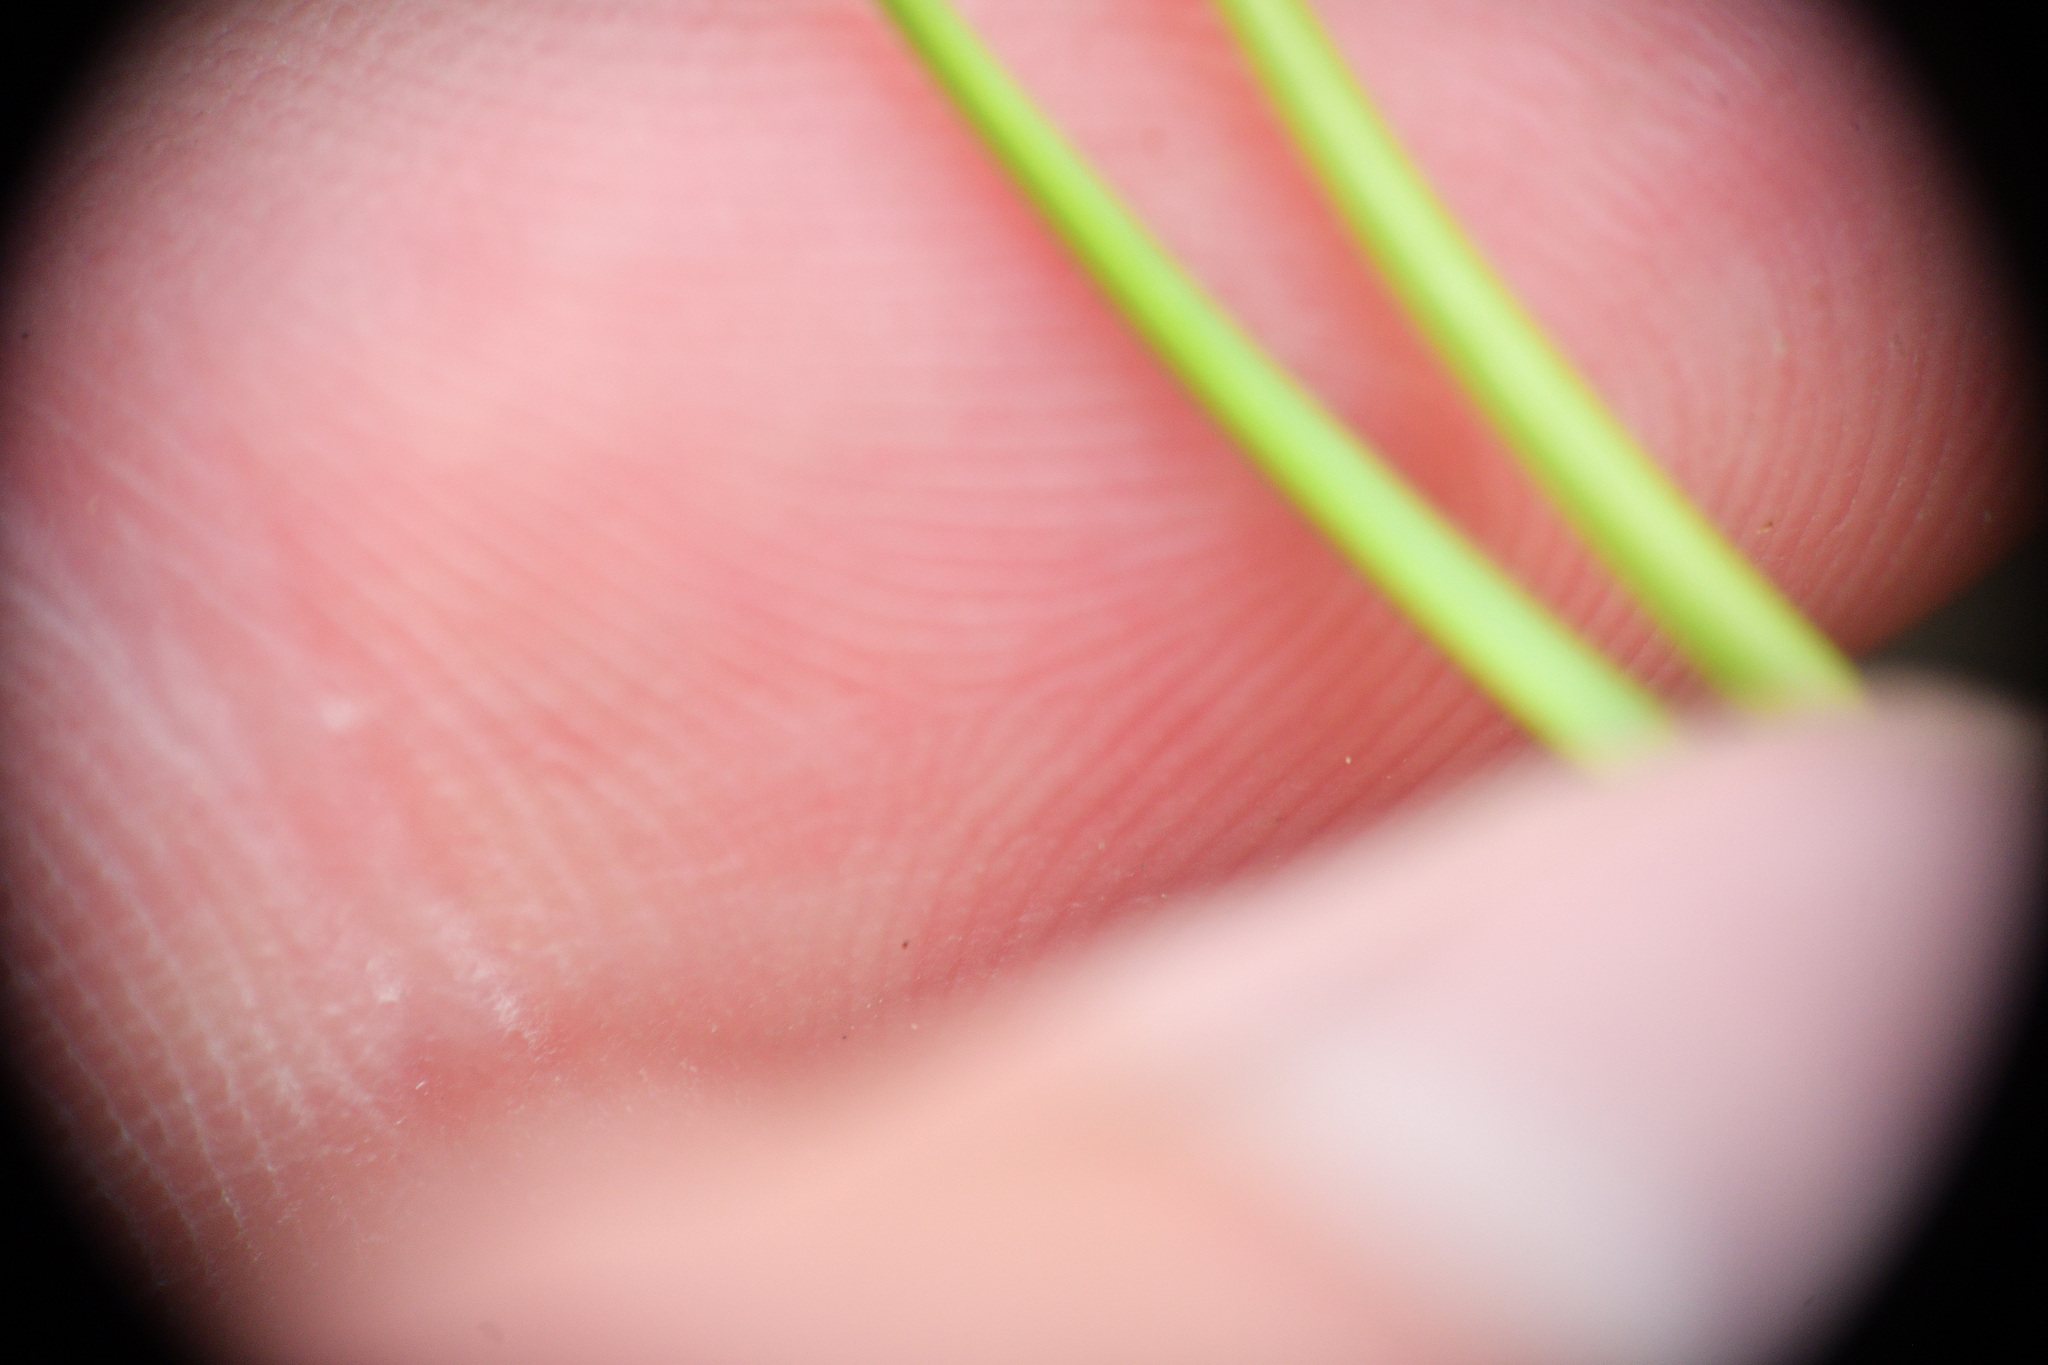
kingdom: Plantae
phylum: Tracheophyta
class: Pinopsida
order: Pinales
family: Pinaceae
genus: Pinus
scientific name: Pinus contorta
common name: Lodgepole pine
